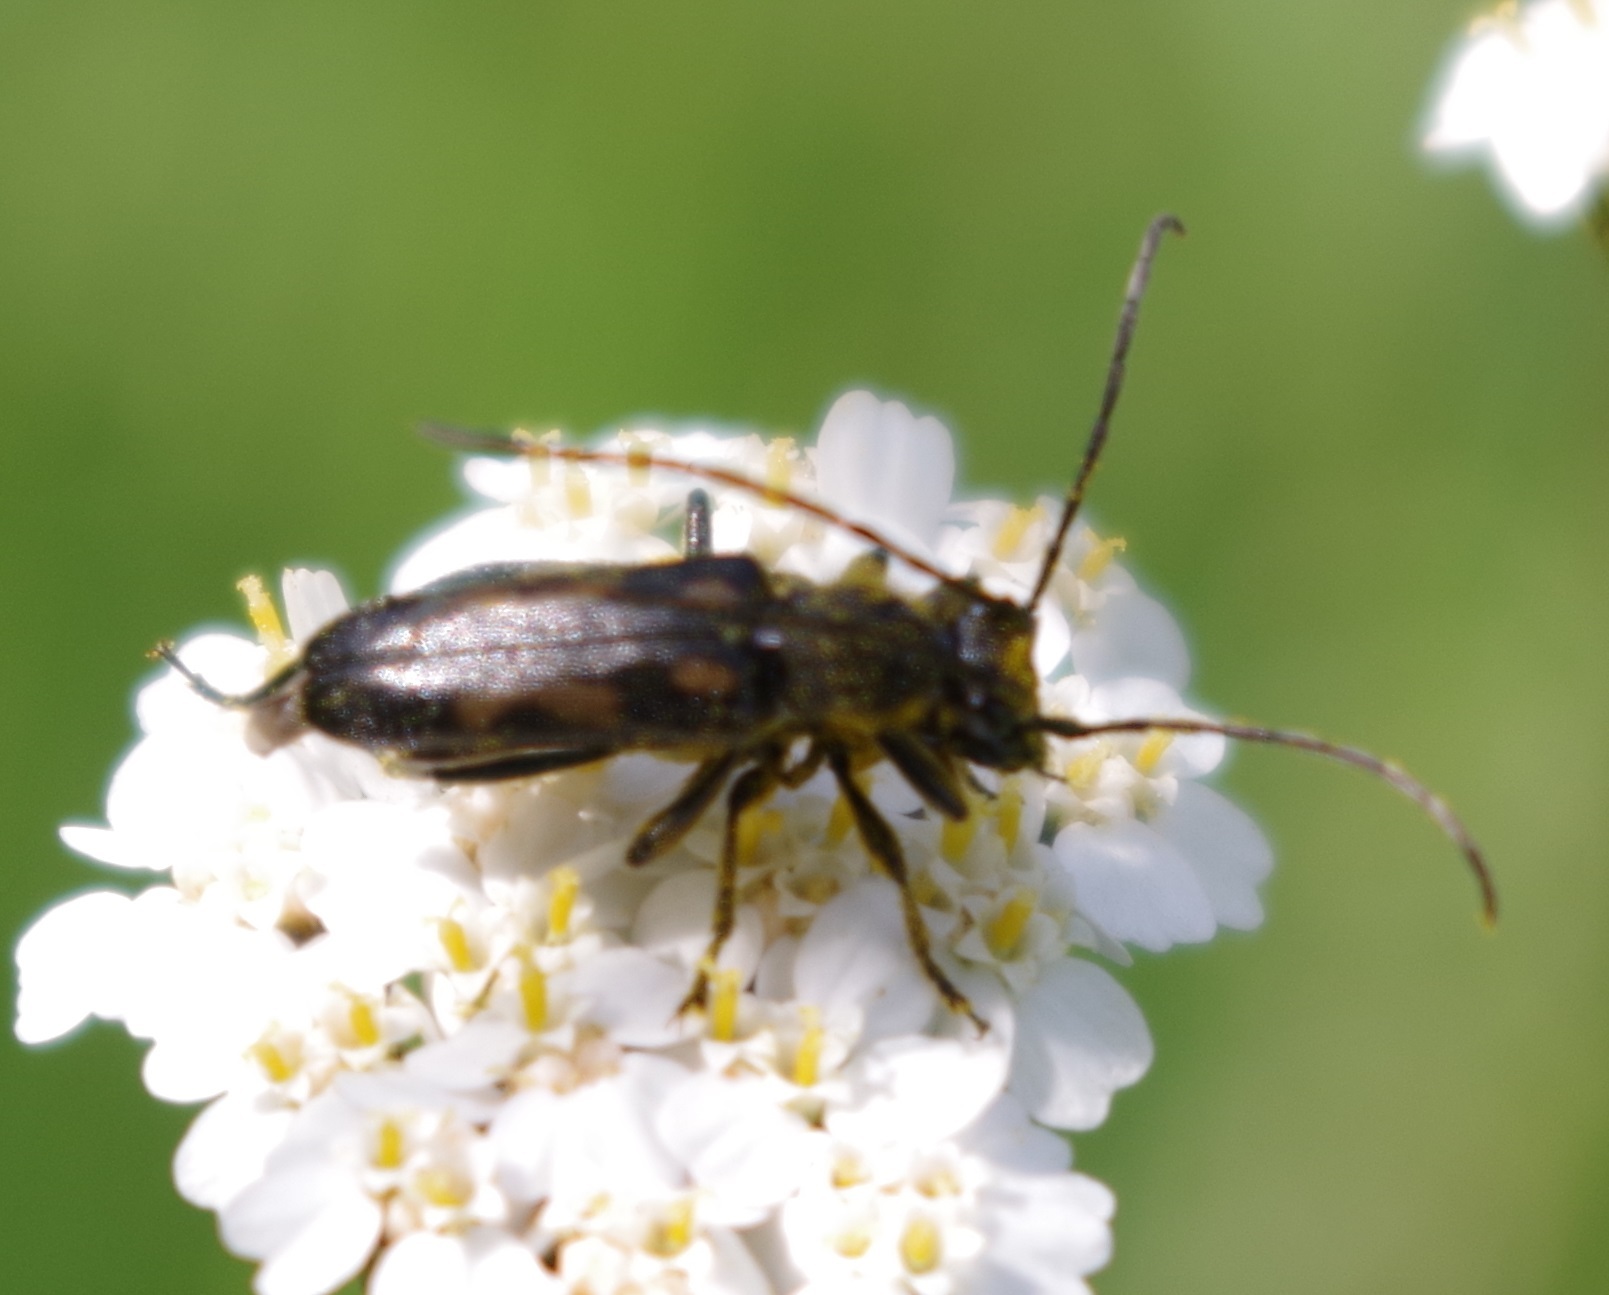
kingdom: Animalia
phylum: Arthropoda
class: Insecta
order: Coleoptera
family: Cerambycidae
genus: Anoplodera
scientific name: Anoplodera sexguttata
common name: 6 spotted longhorn
